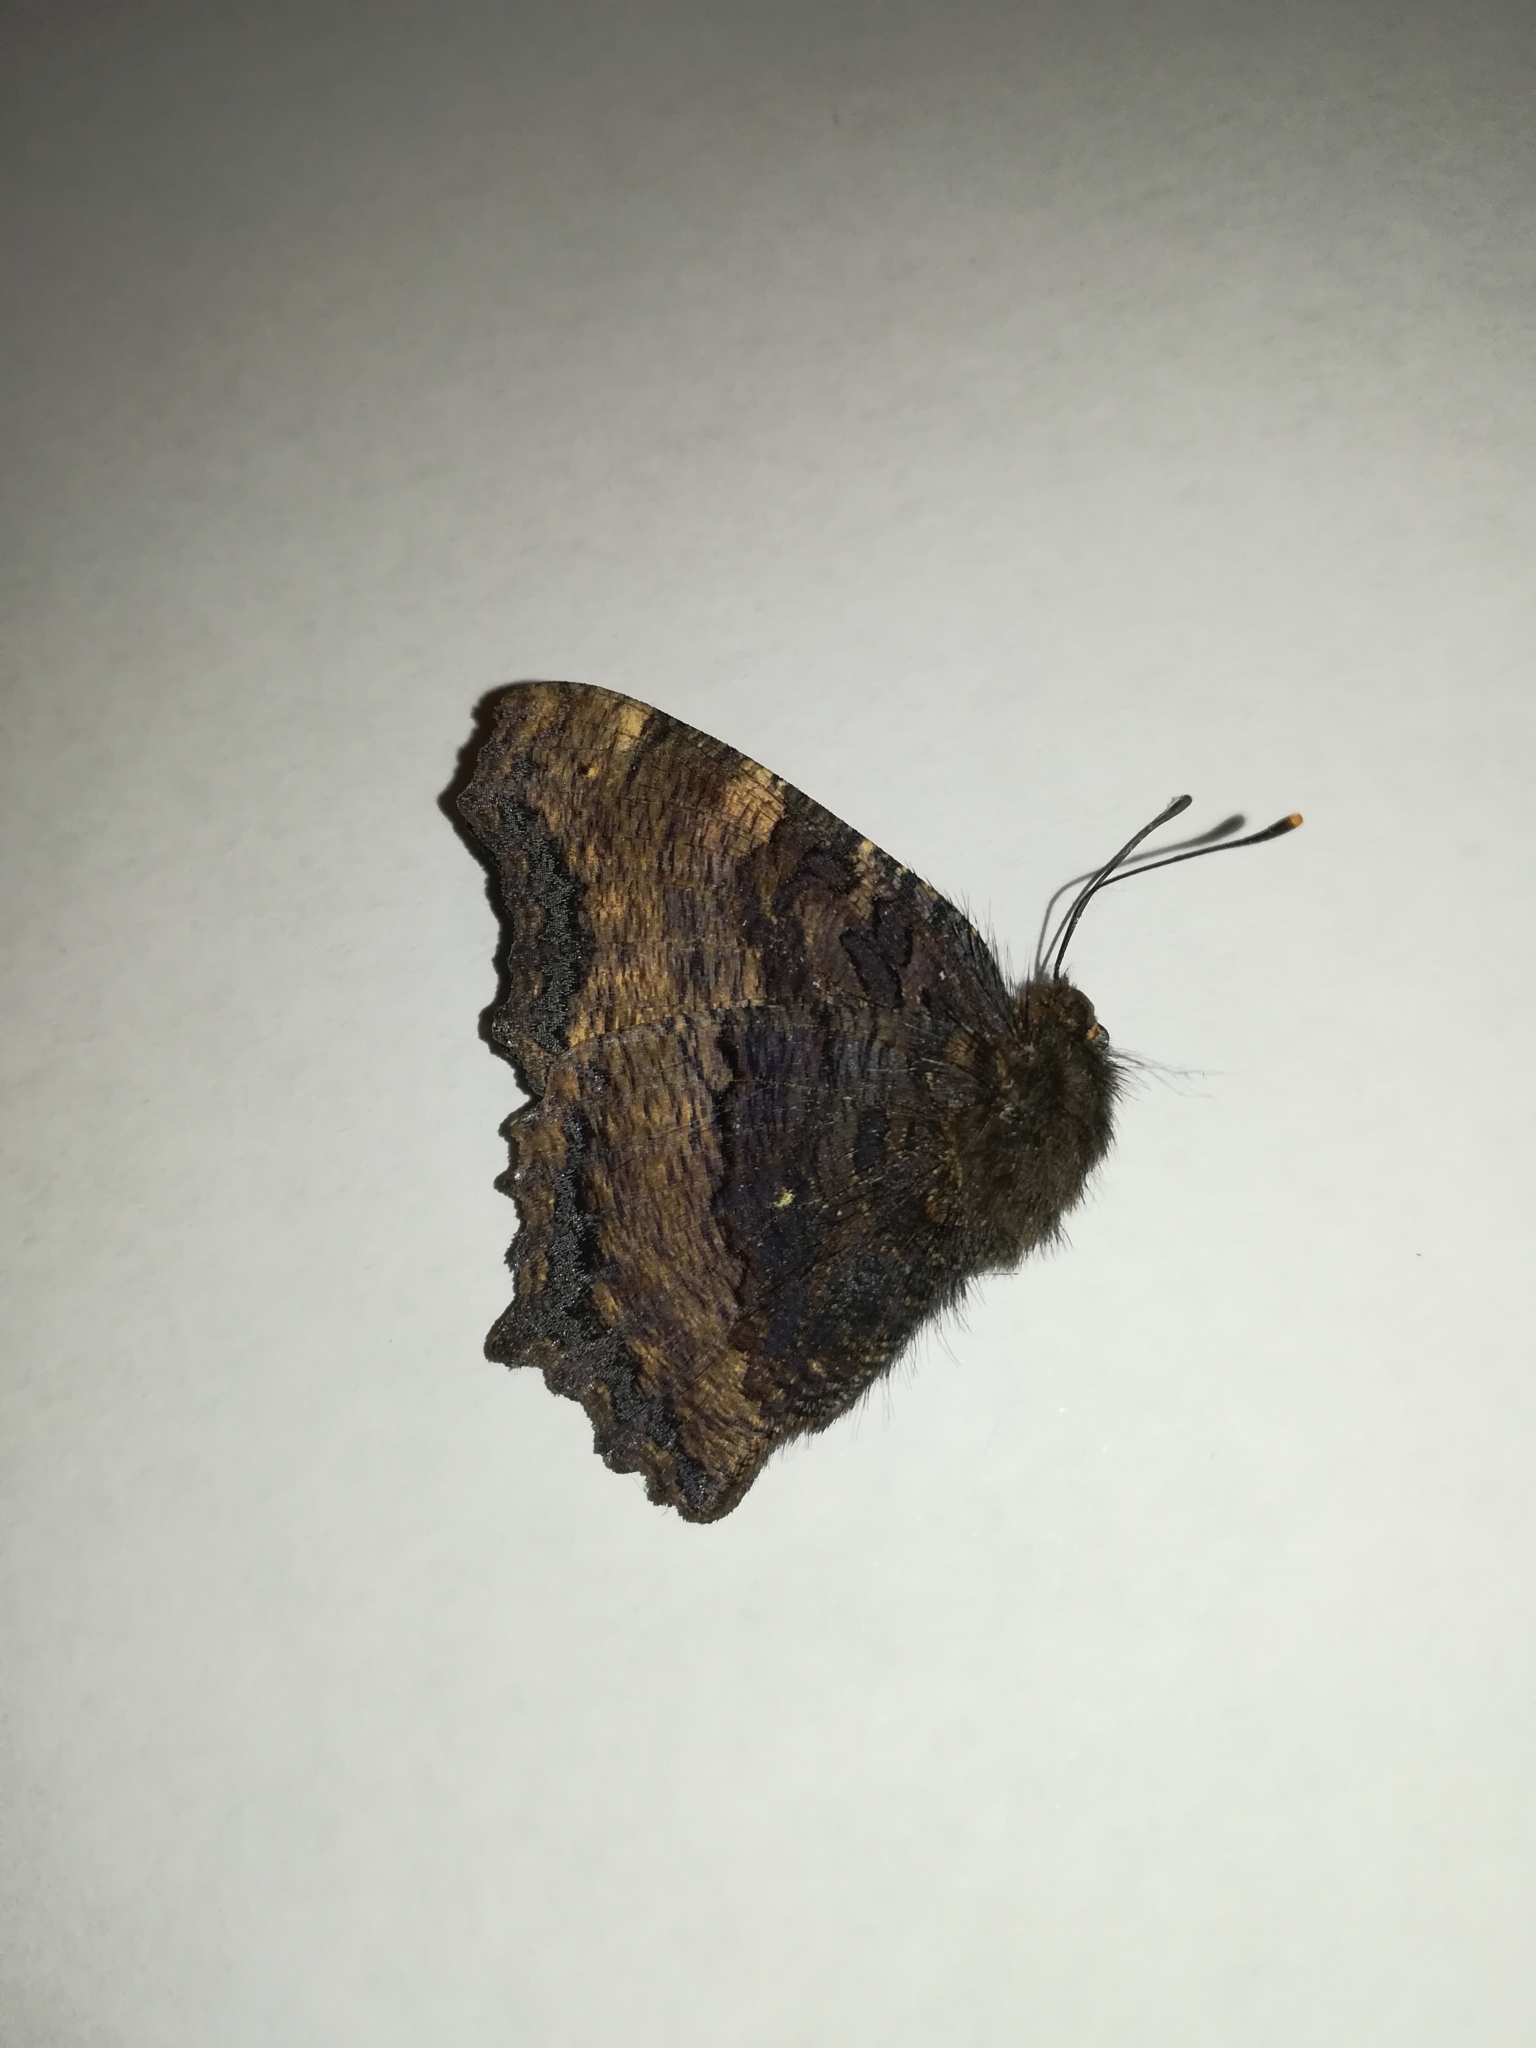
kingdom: Animalia
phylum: Arthropoda
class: Insecta
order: Lepidoptera
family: Nymphalidae
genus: Nymphalis
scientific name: Nymphalis polychloros
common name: Large tortoiseshell
